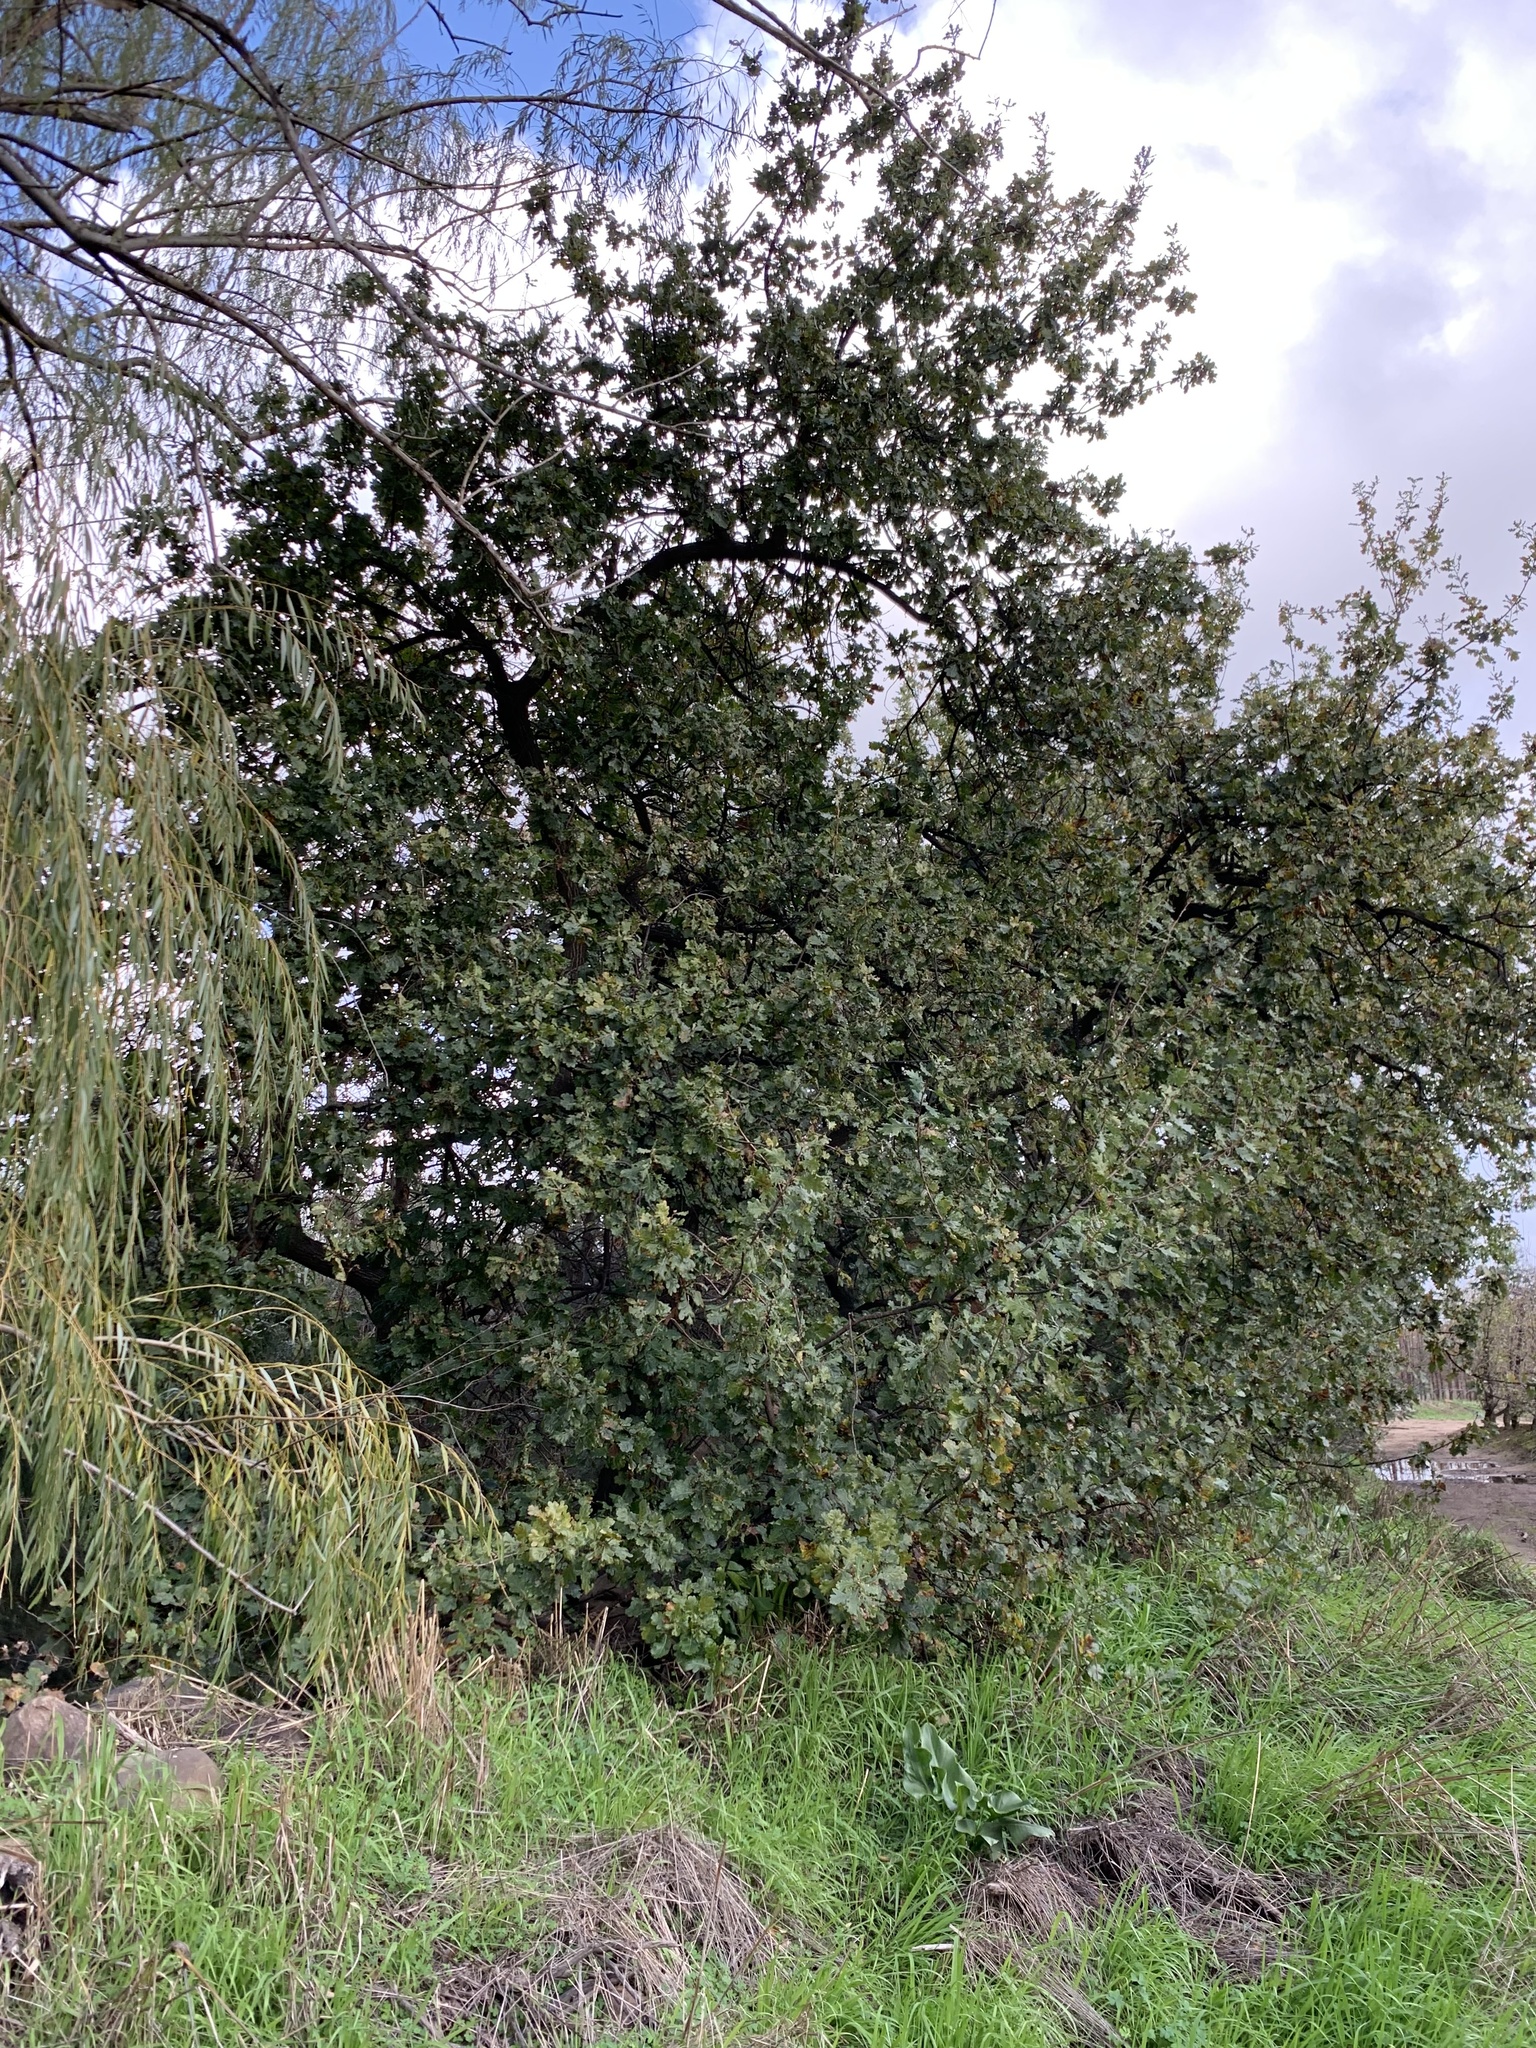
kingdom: Plantae
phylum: Tracheophyta
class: Magnoliopsida
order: Fagales
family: Fagaceae
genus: Quercus
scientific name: Quercus robur
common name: Pedunculate oak
